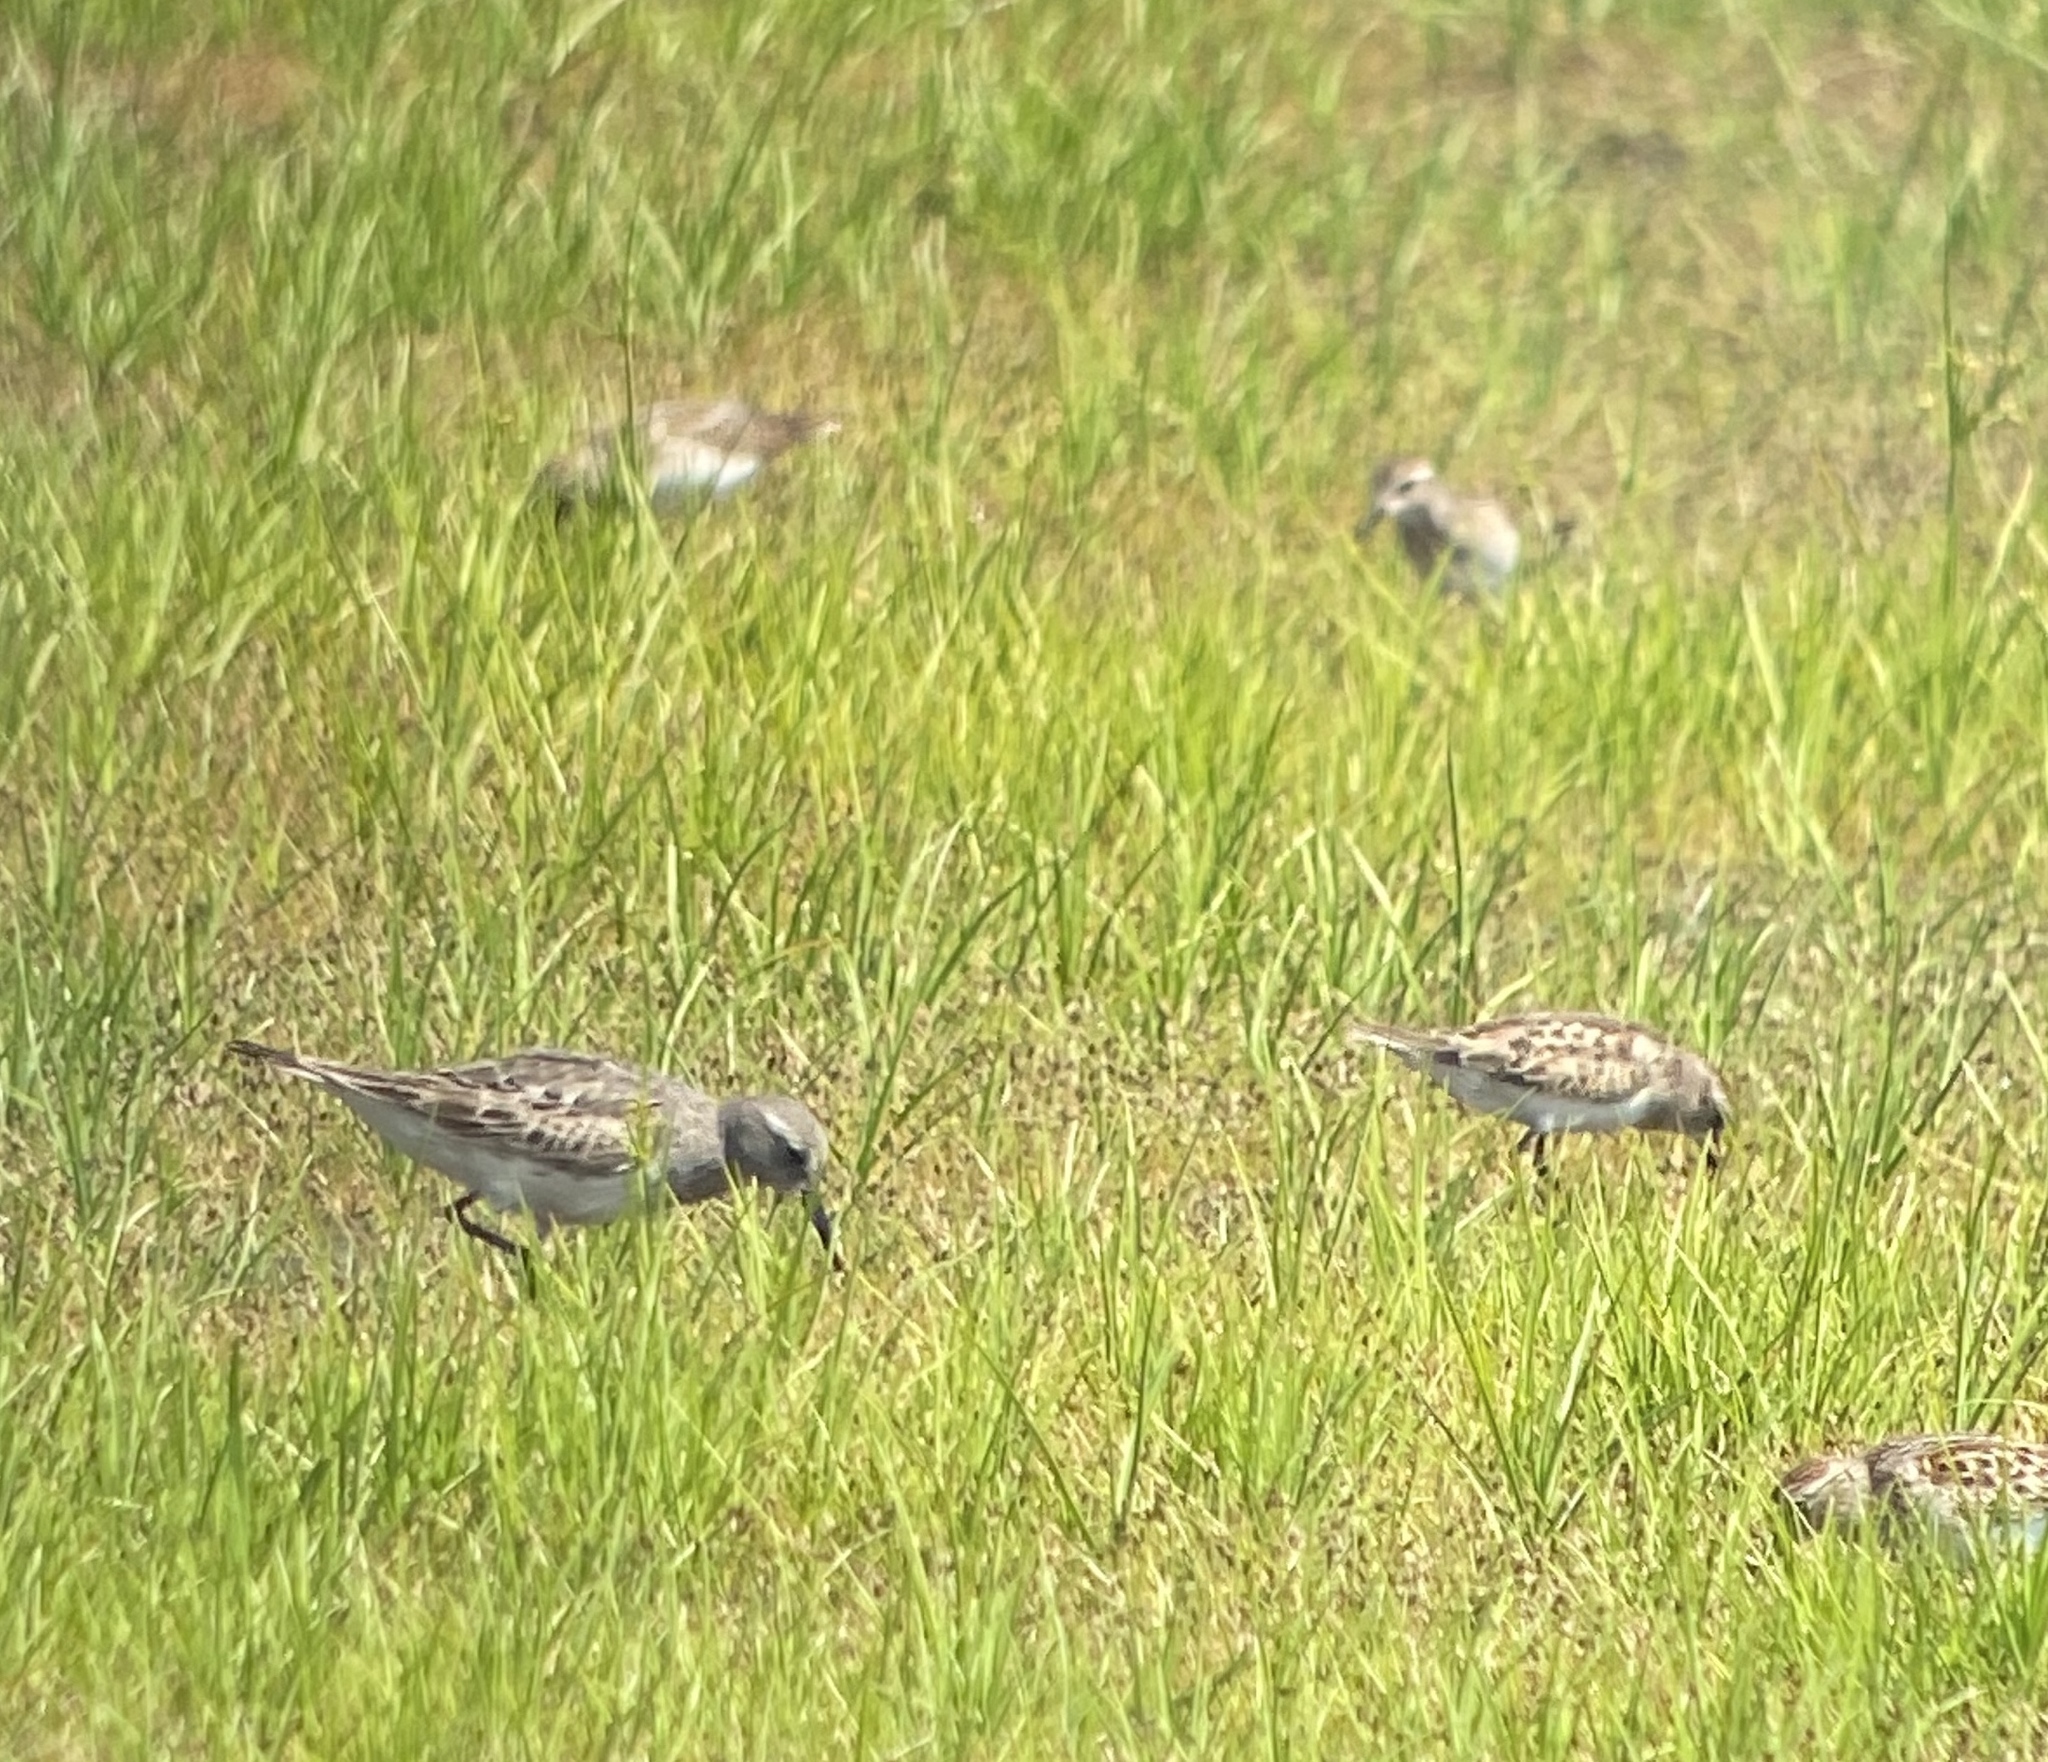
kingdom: Animalia
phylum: Chordata
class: Aves
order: Charadriiformes
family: Scolopacidae
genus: Calidris
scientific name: Calidris fuscicollis
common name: White-rumped sandpiper
